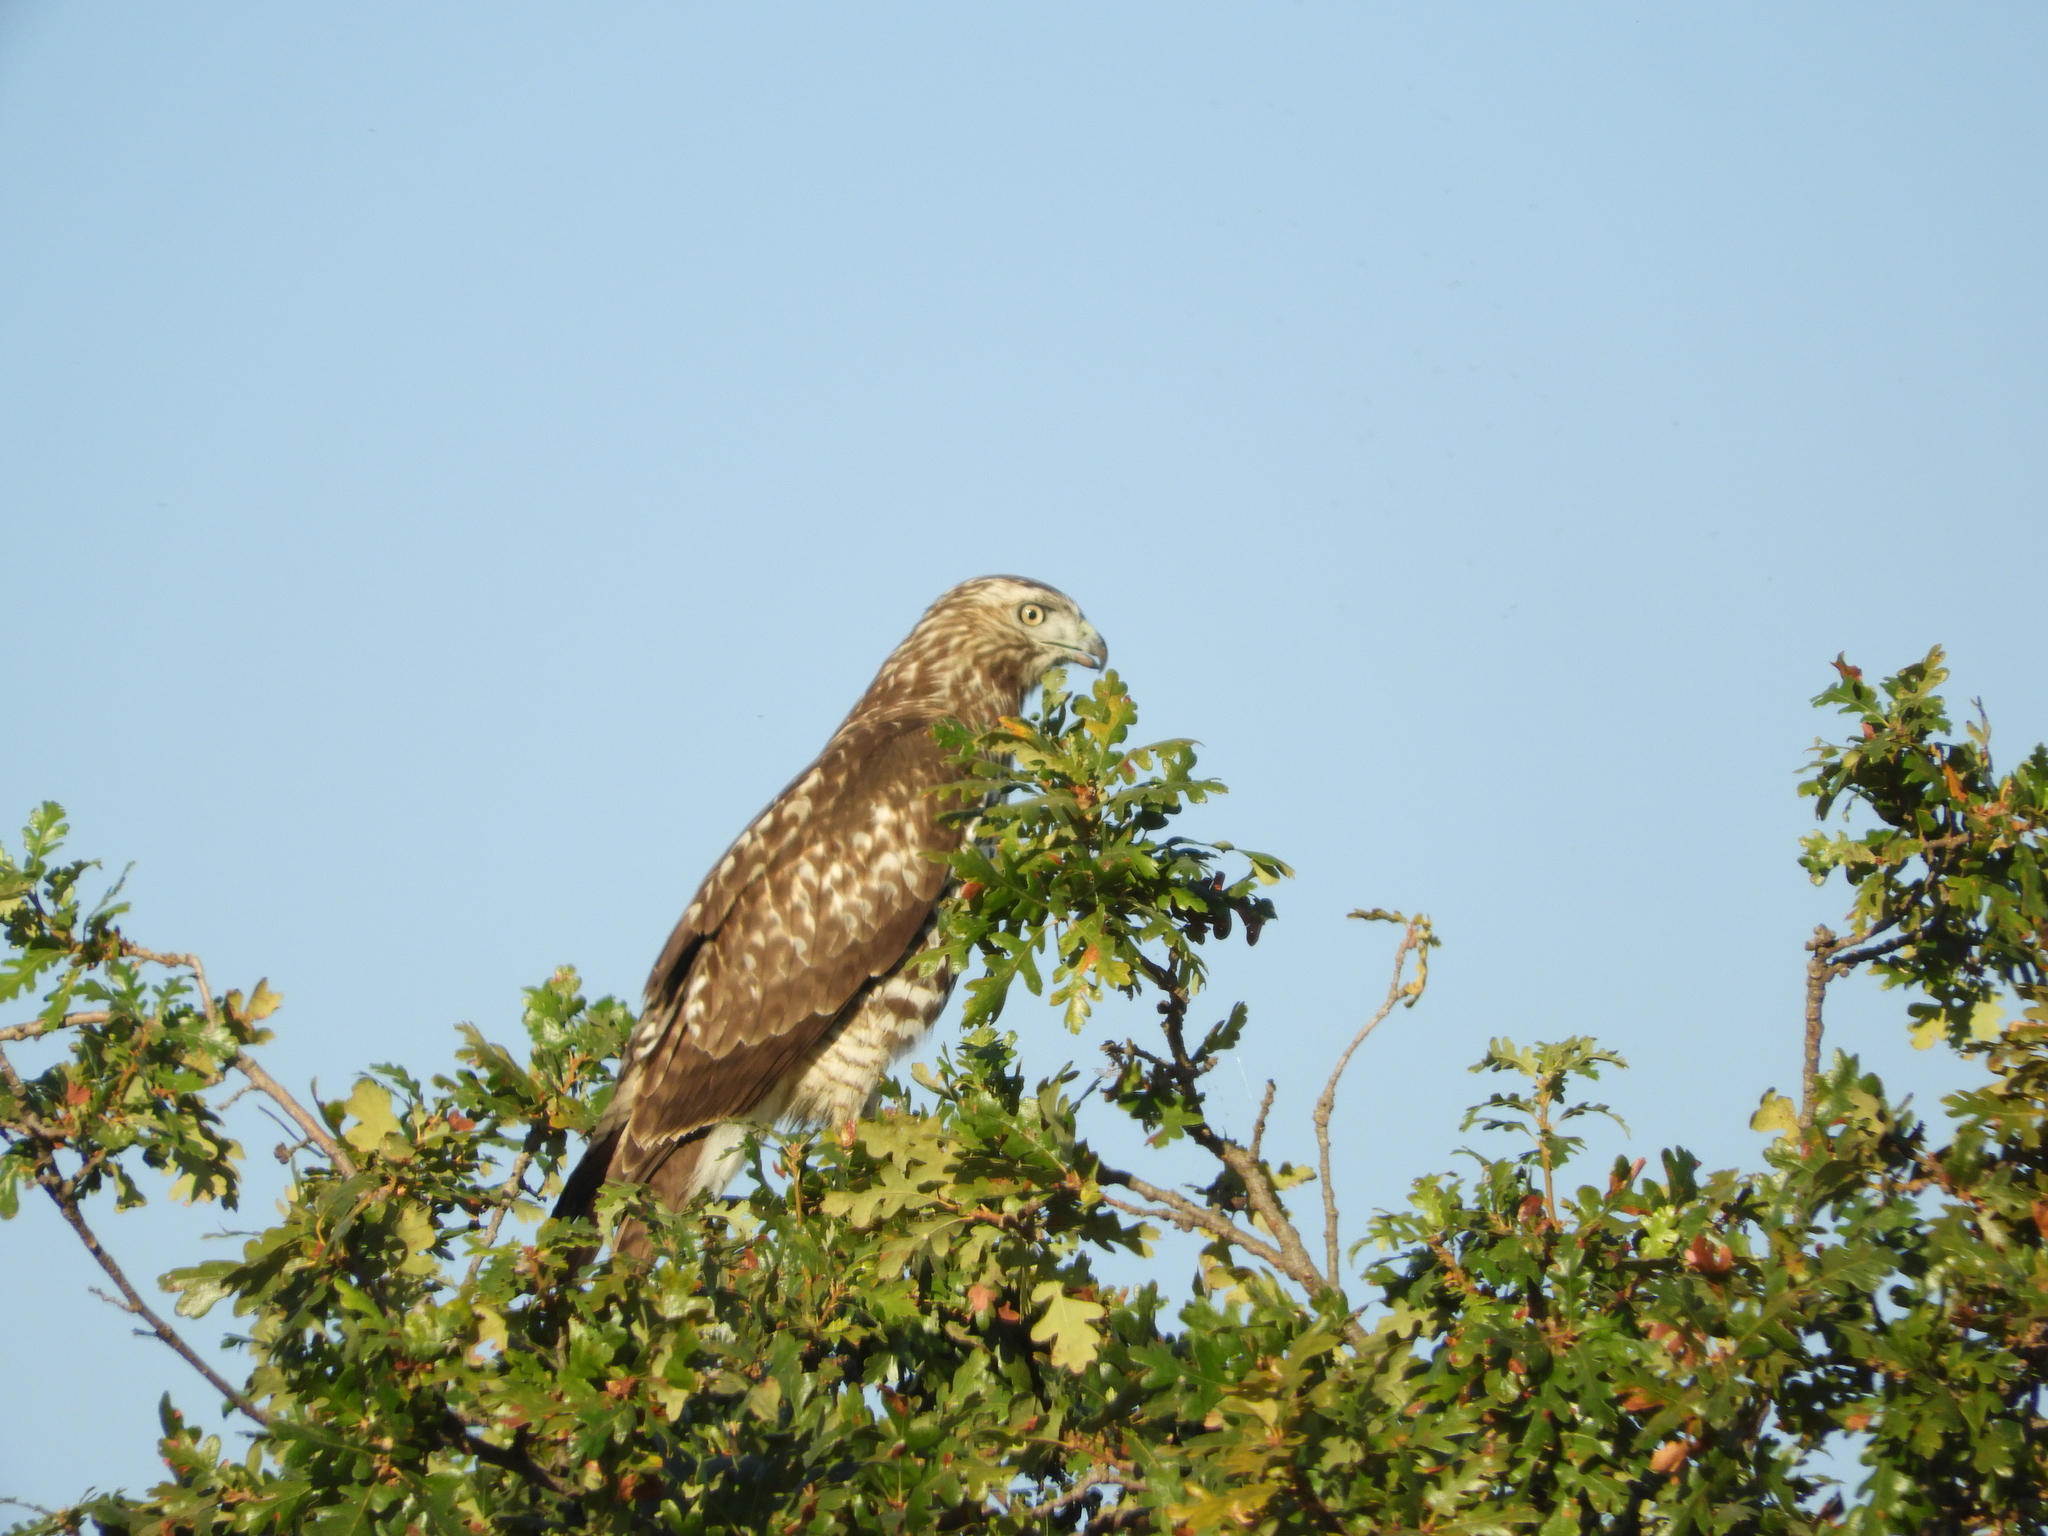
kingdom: Animalia
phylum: Chordata
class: Aves
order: Accipitriformes
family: Accipitridae
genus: Buteo
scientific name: Buteo jamaicensis
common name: Red-tailed hawk
